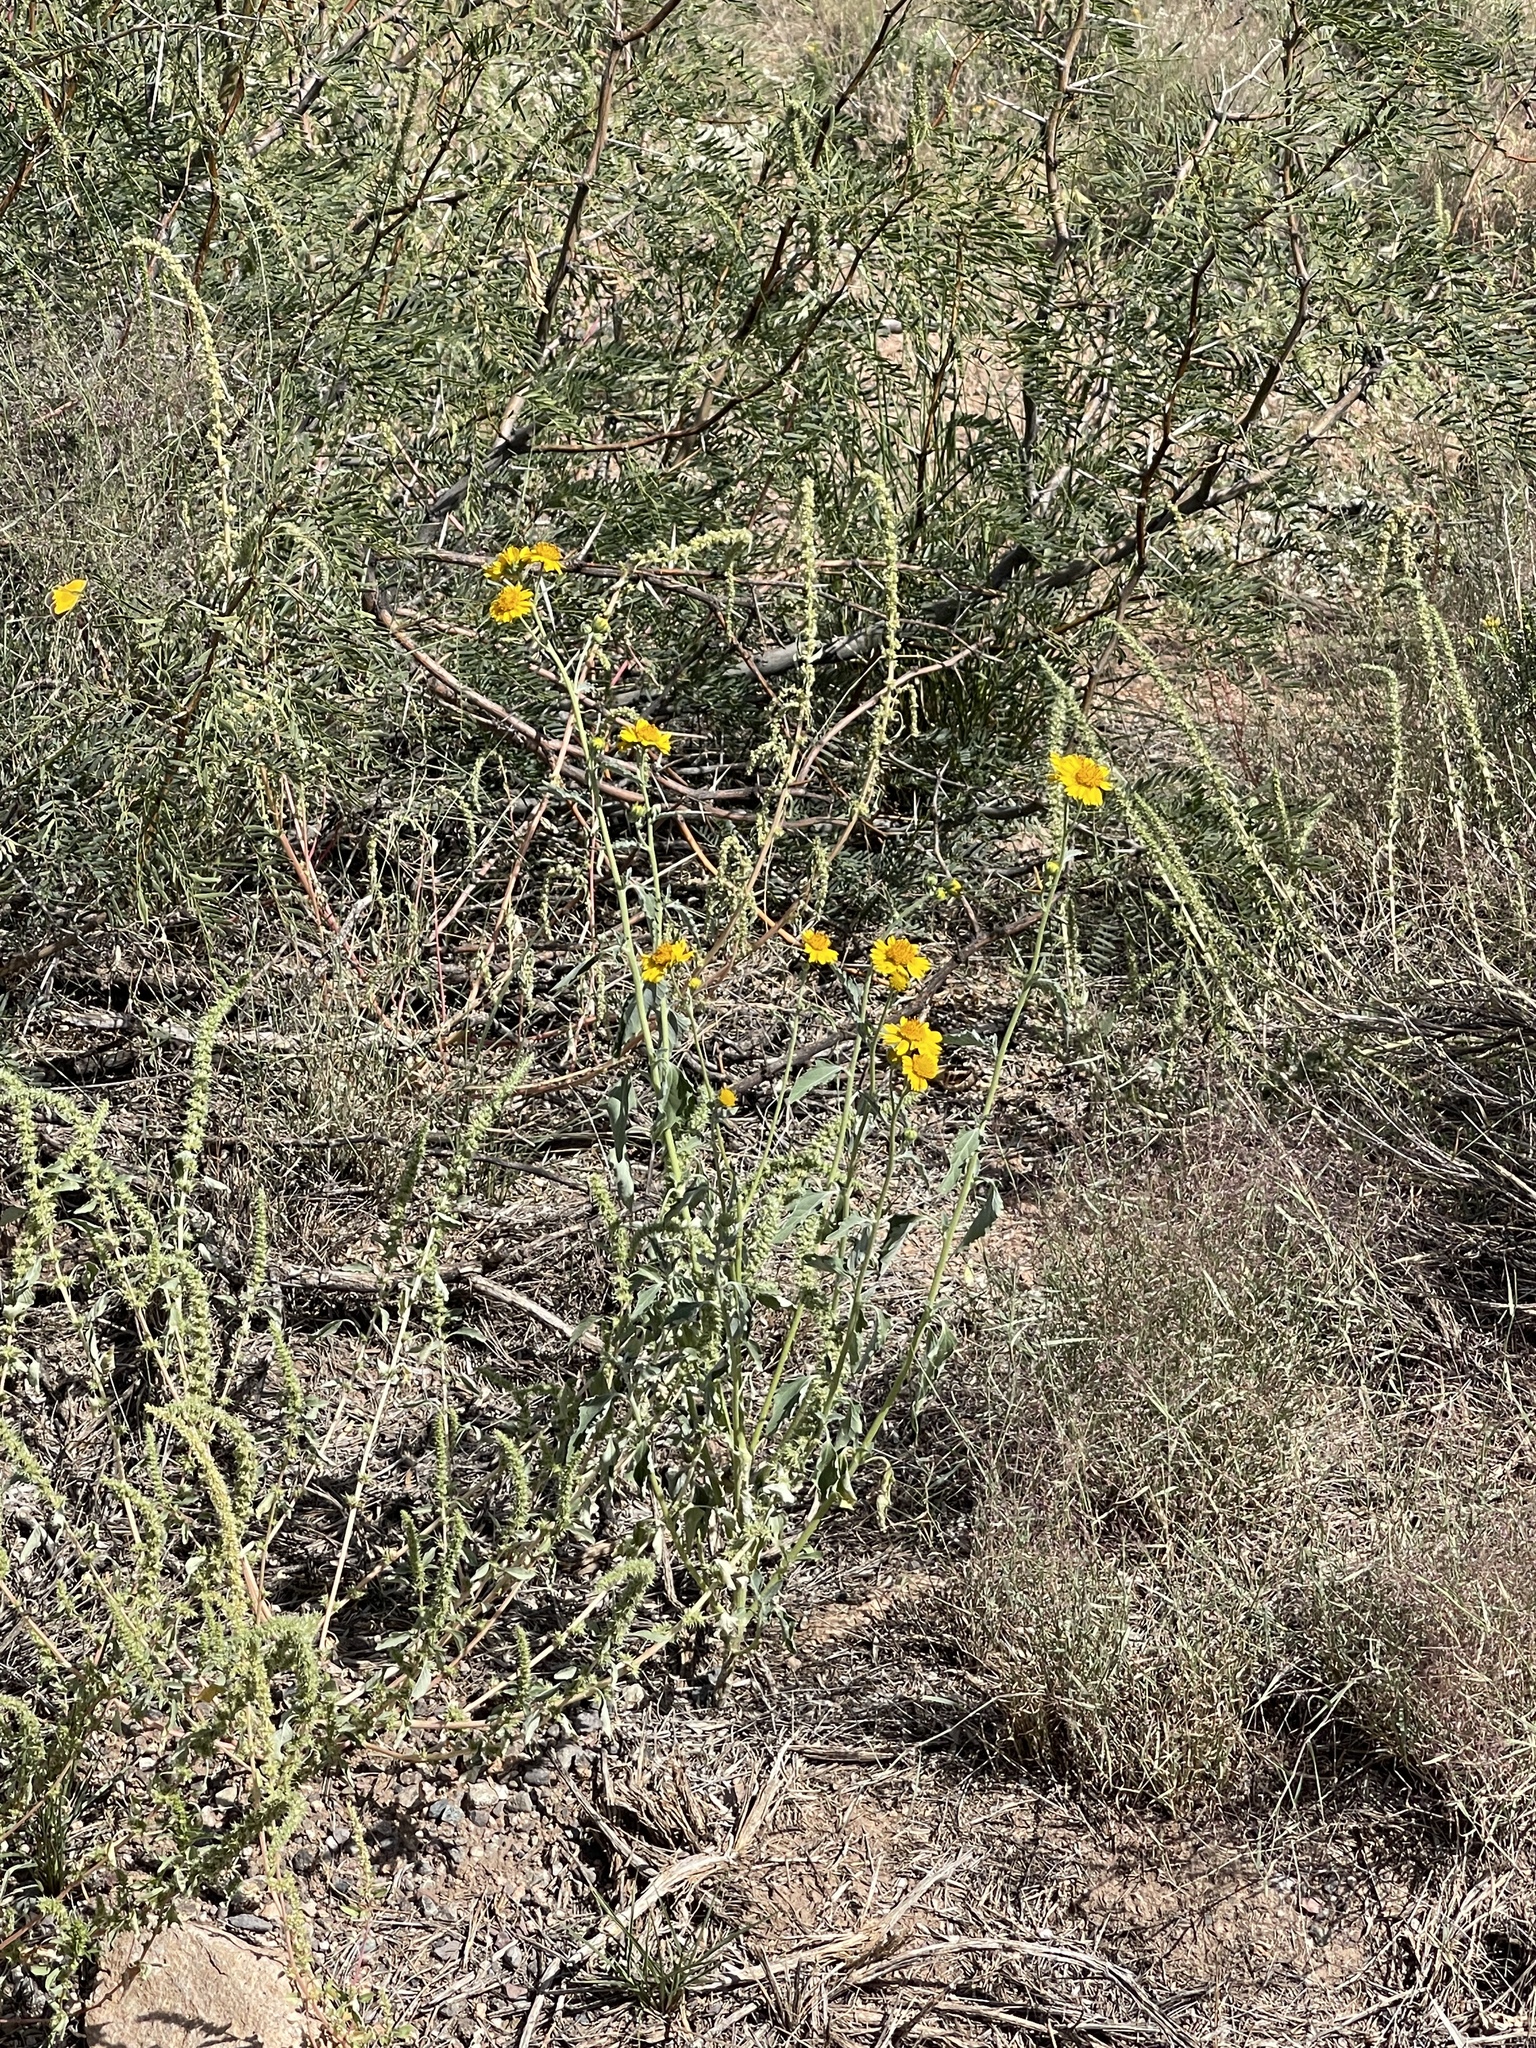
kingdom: Plantae
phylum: Tracheophyta
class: Magnoliopsida
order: Asterales
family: Asteraceae
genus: Verbesina
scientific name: Verbesina encelioides
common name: Golden crownbeard
